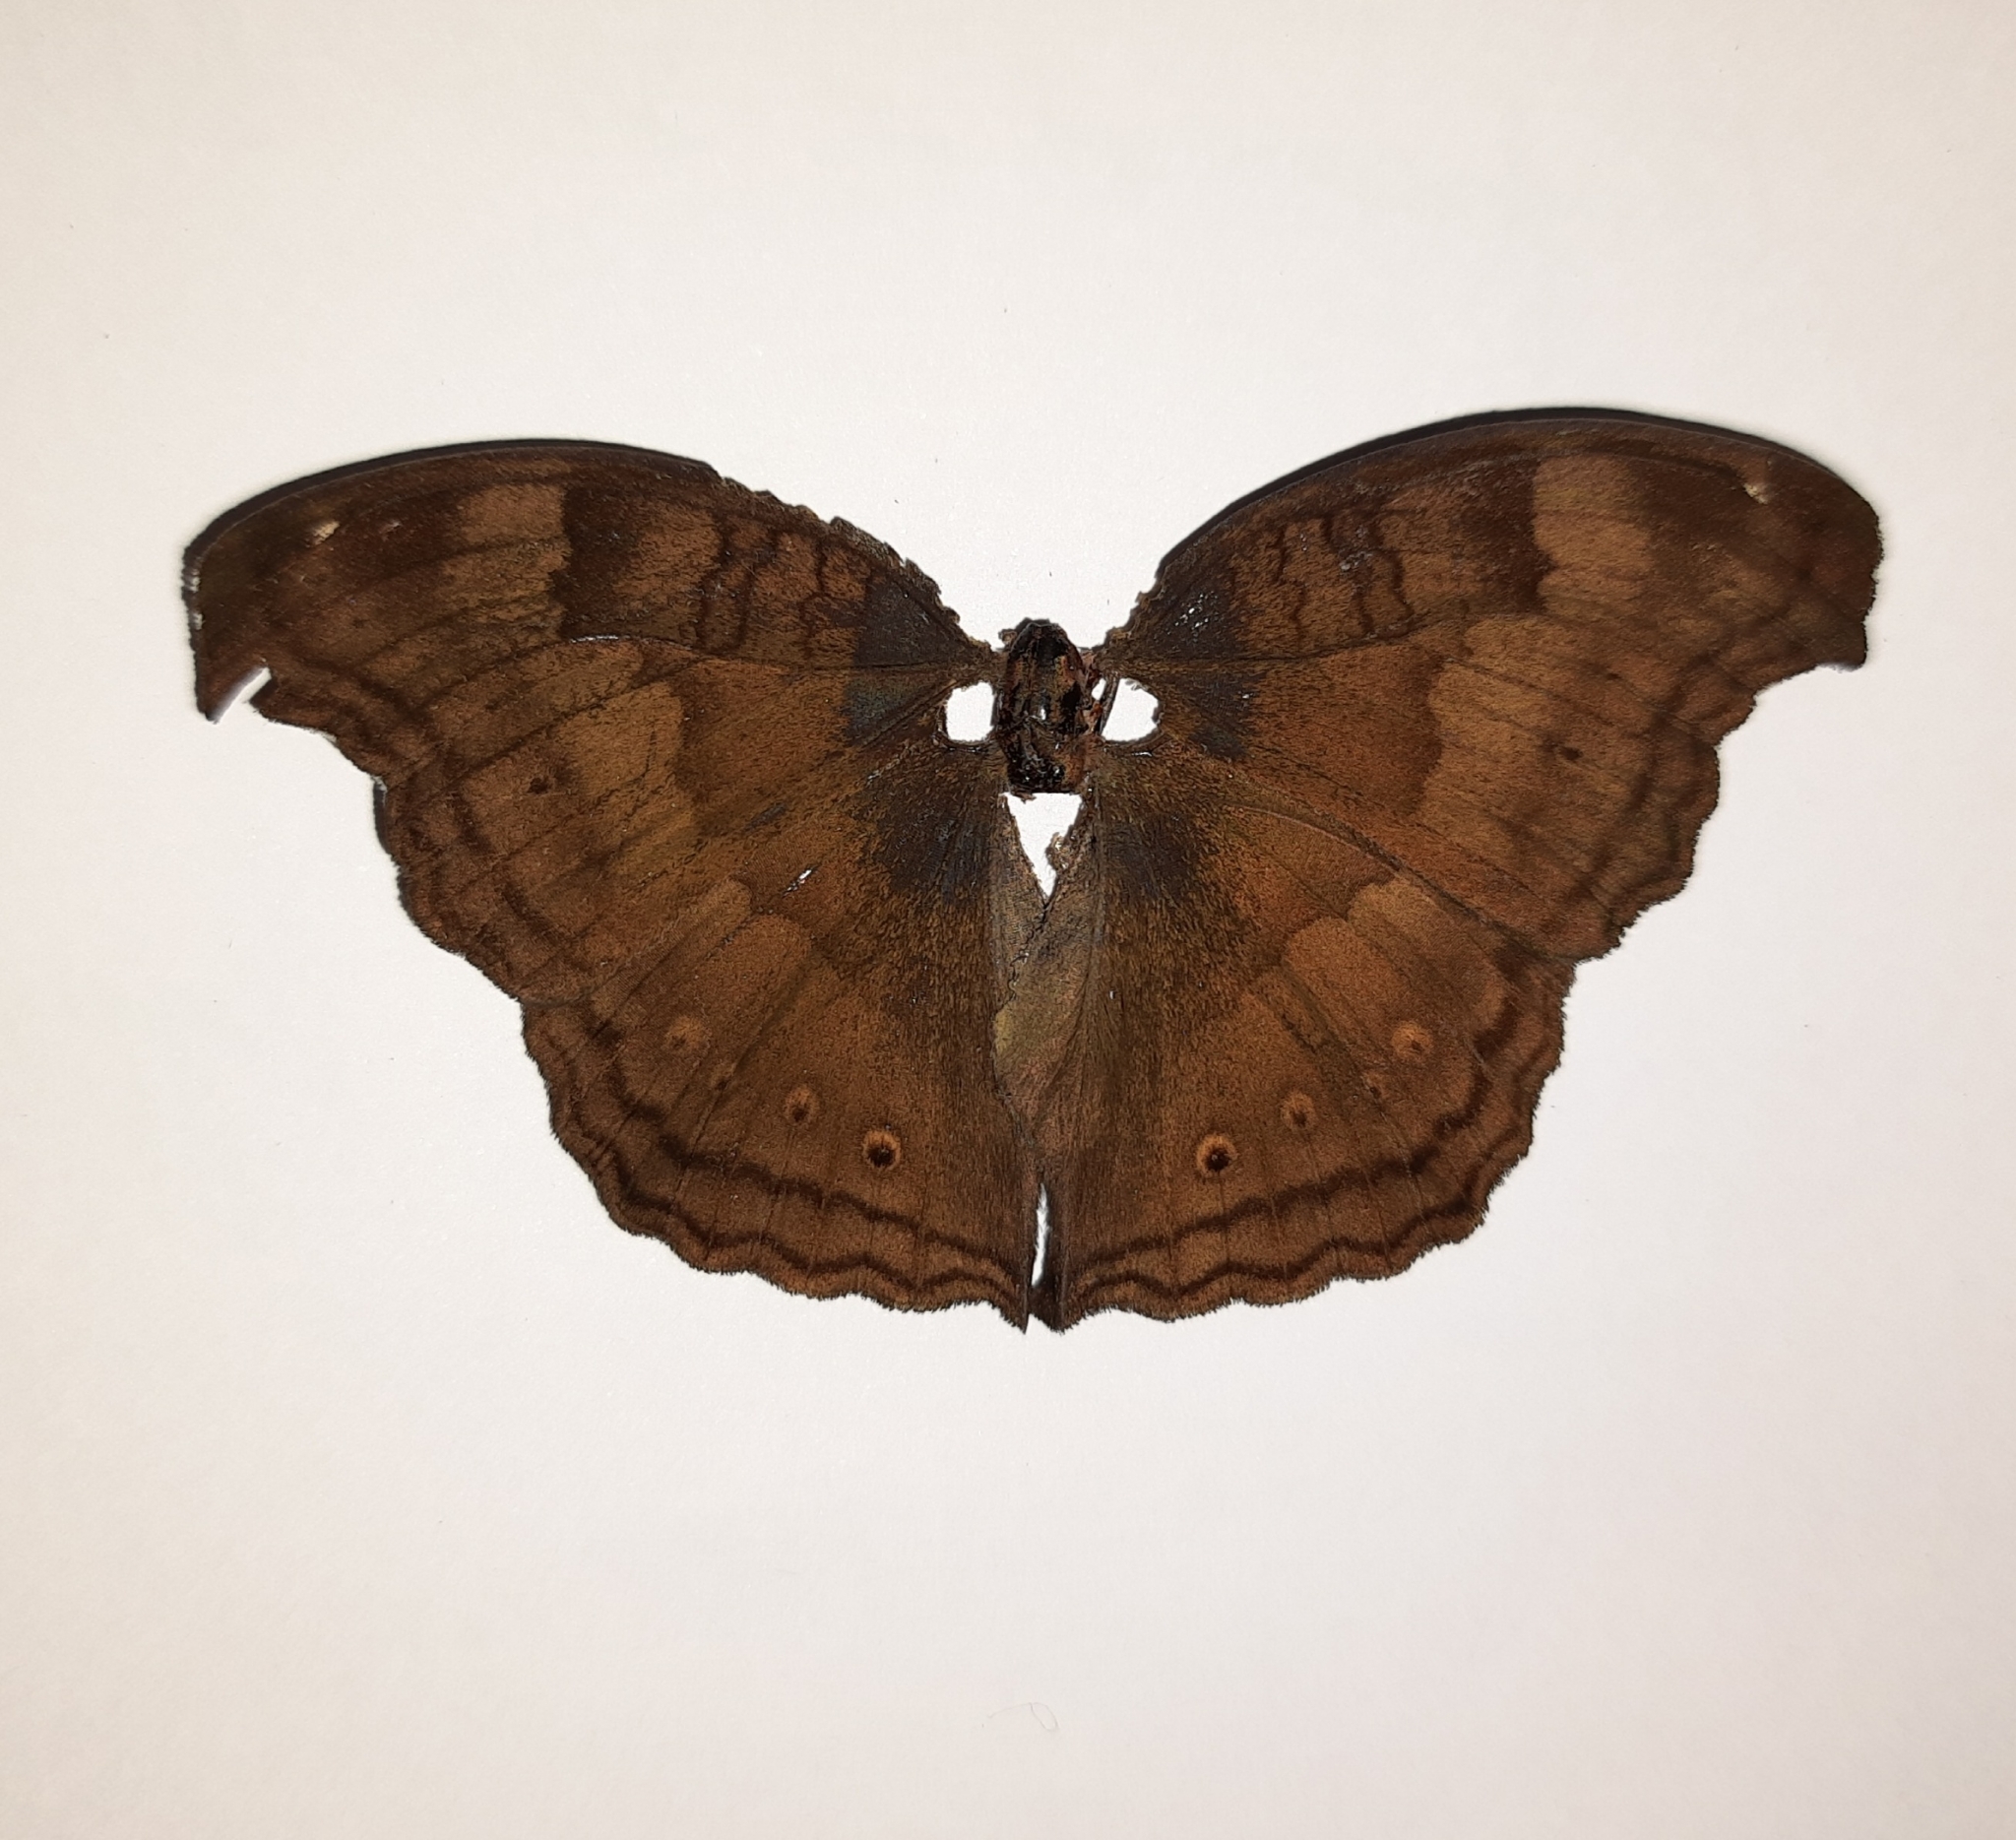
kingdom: Animalia
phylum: Arthropoda
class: Insecta
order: Lepidoptera
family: Nymphalidae
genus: Junonia
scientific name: Junonia iphita
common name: Chocolate pansy
